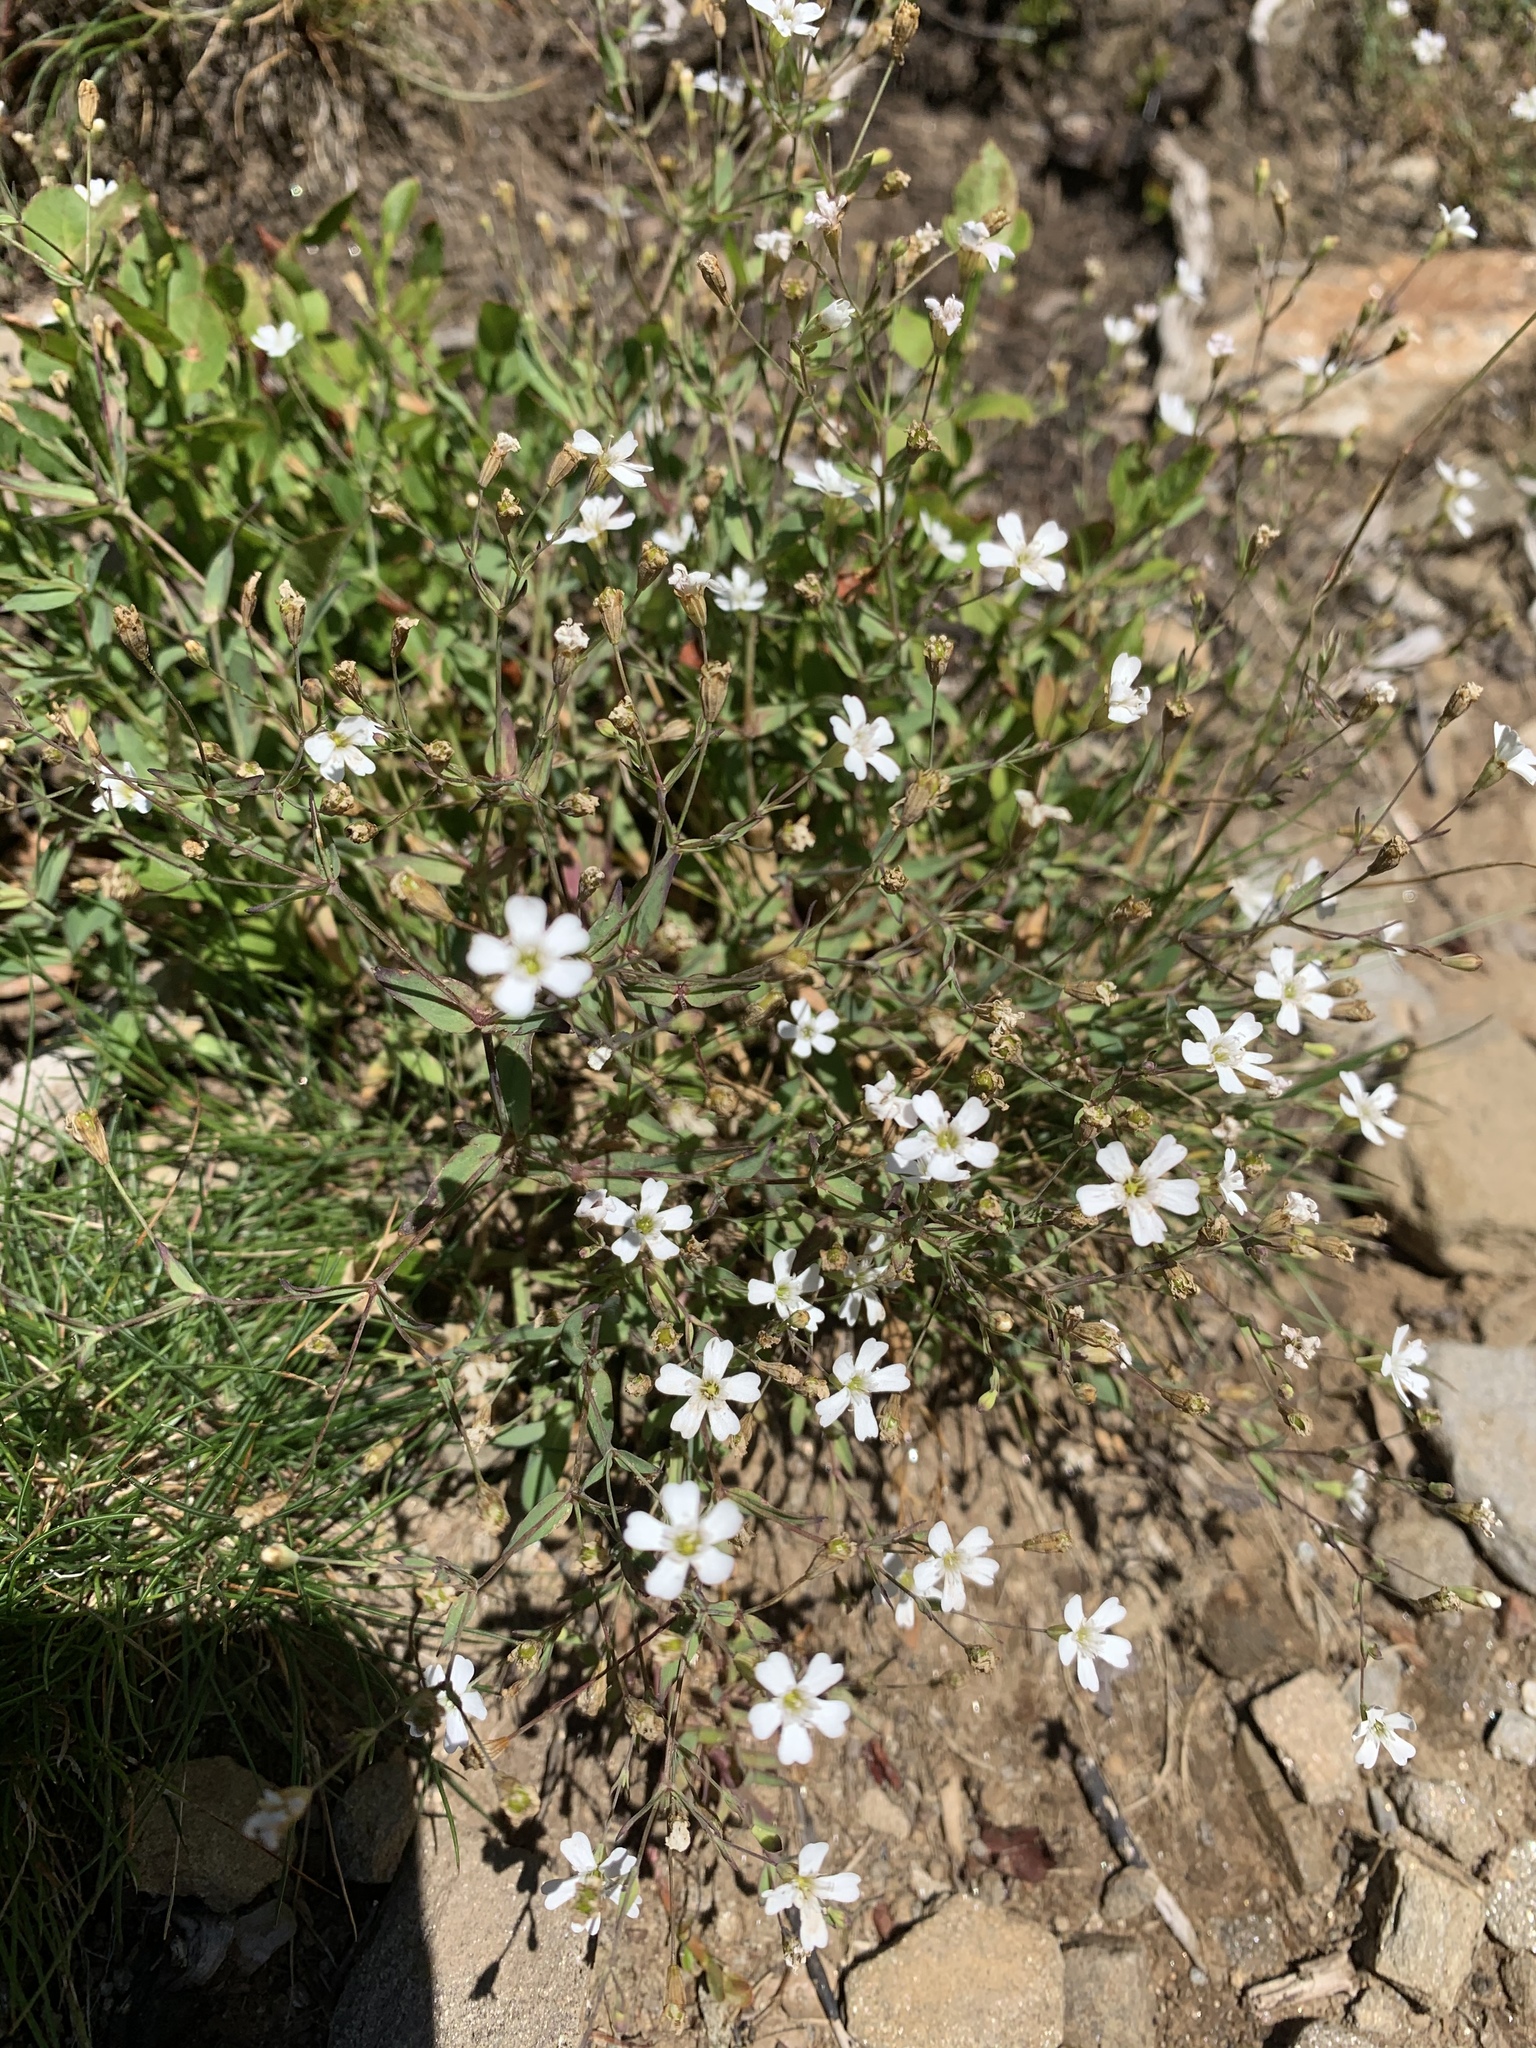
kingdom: Plantae
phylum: Tracheophyta
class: Magnoliopsida
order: Caryophyllales
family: Caryophyllaceae
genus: Atocion
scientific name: Atocion rupestre
